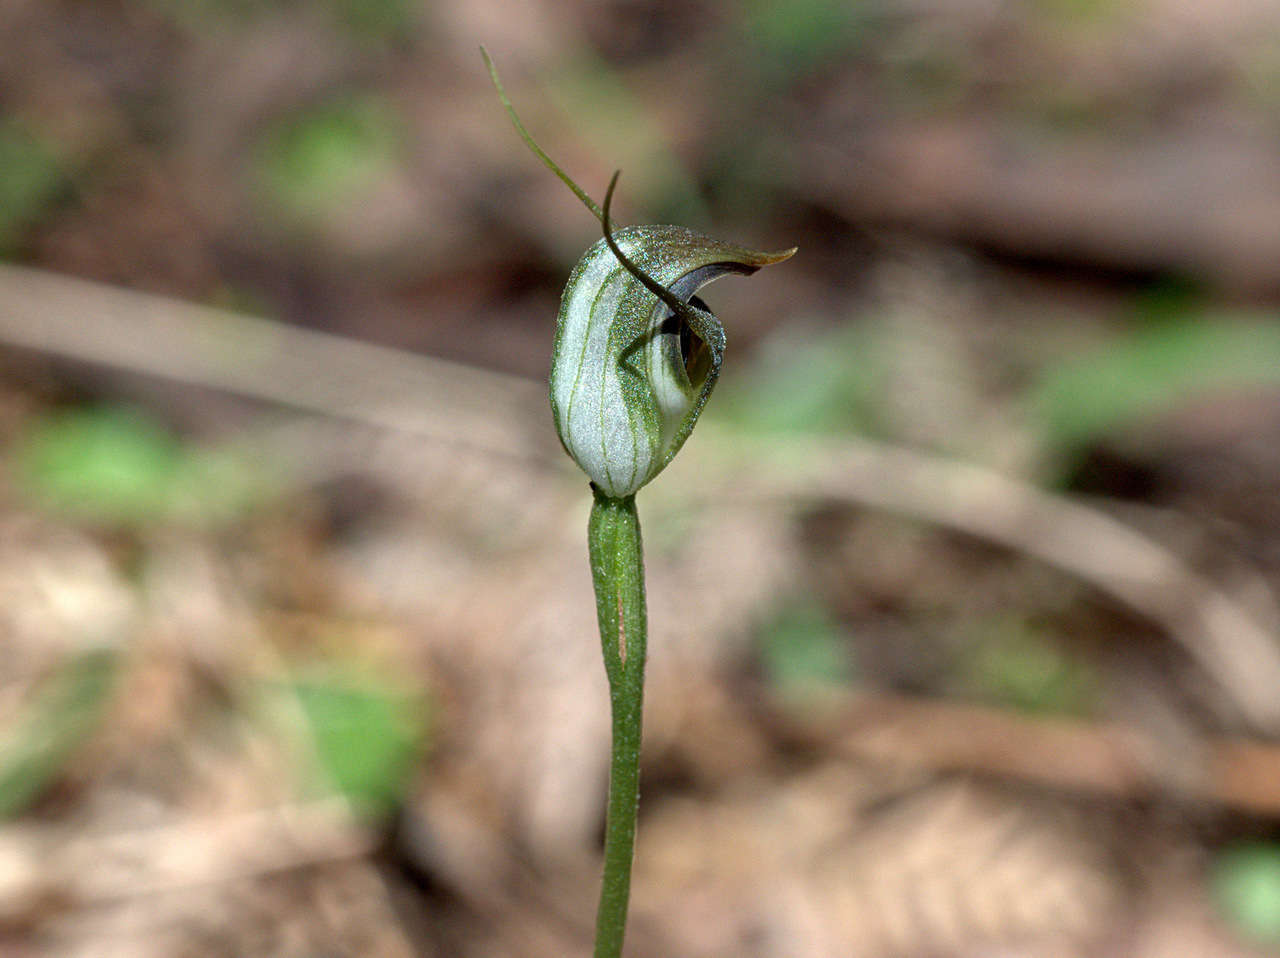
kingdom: Plantae
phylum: Tracheophyta
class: Liliopsida
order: Asparagales
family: Orchidaceae
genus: Pterostylis
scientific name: Pterostylis pedunculata
